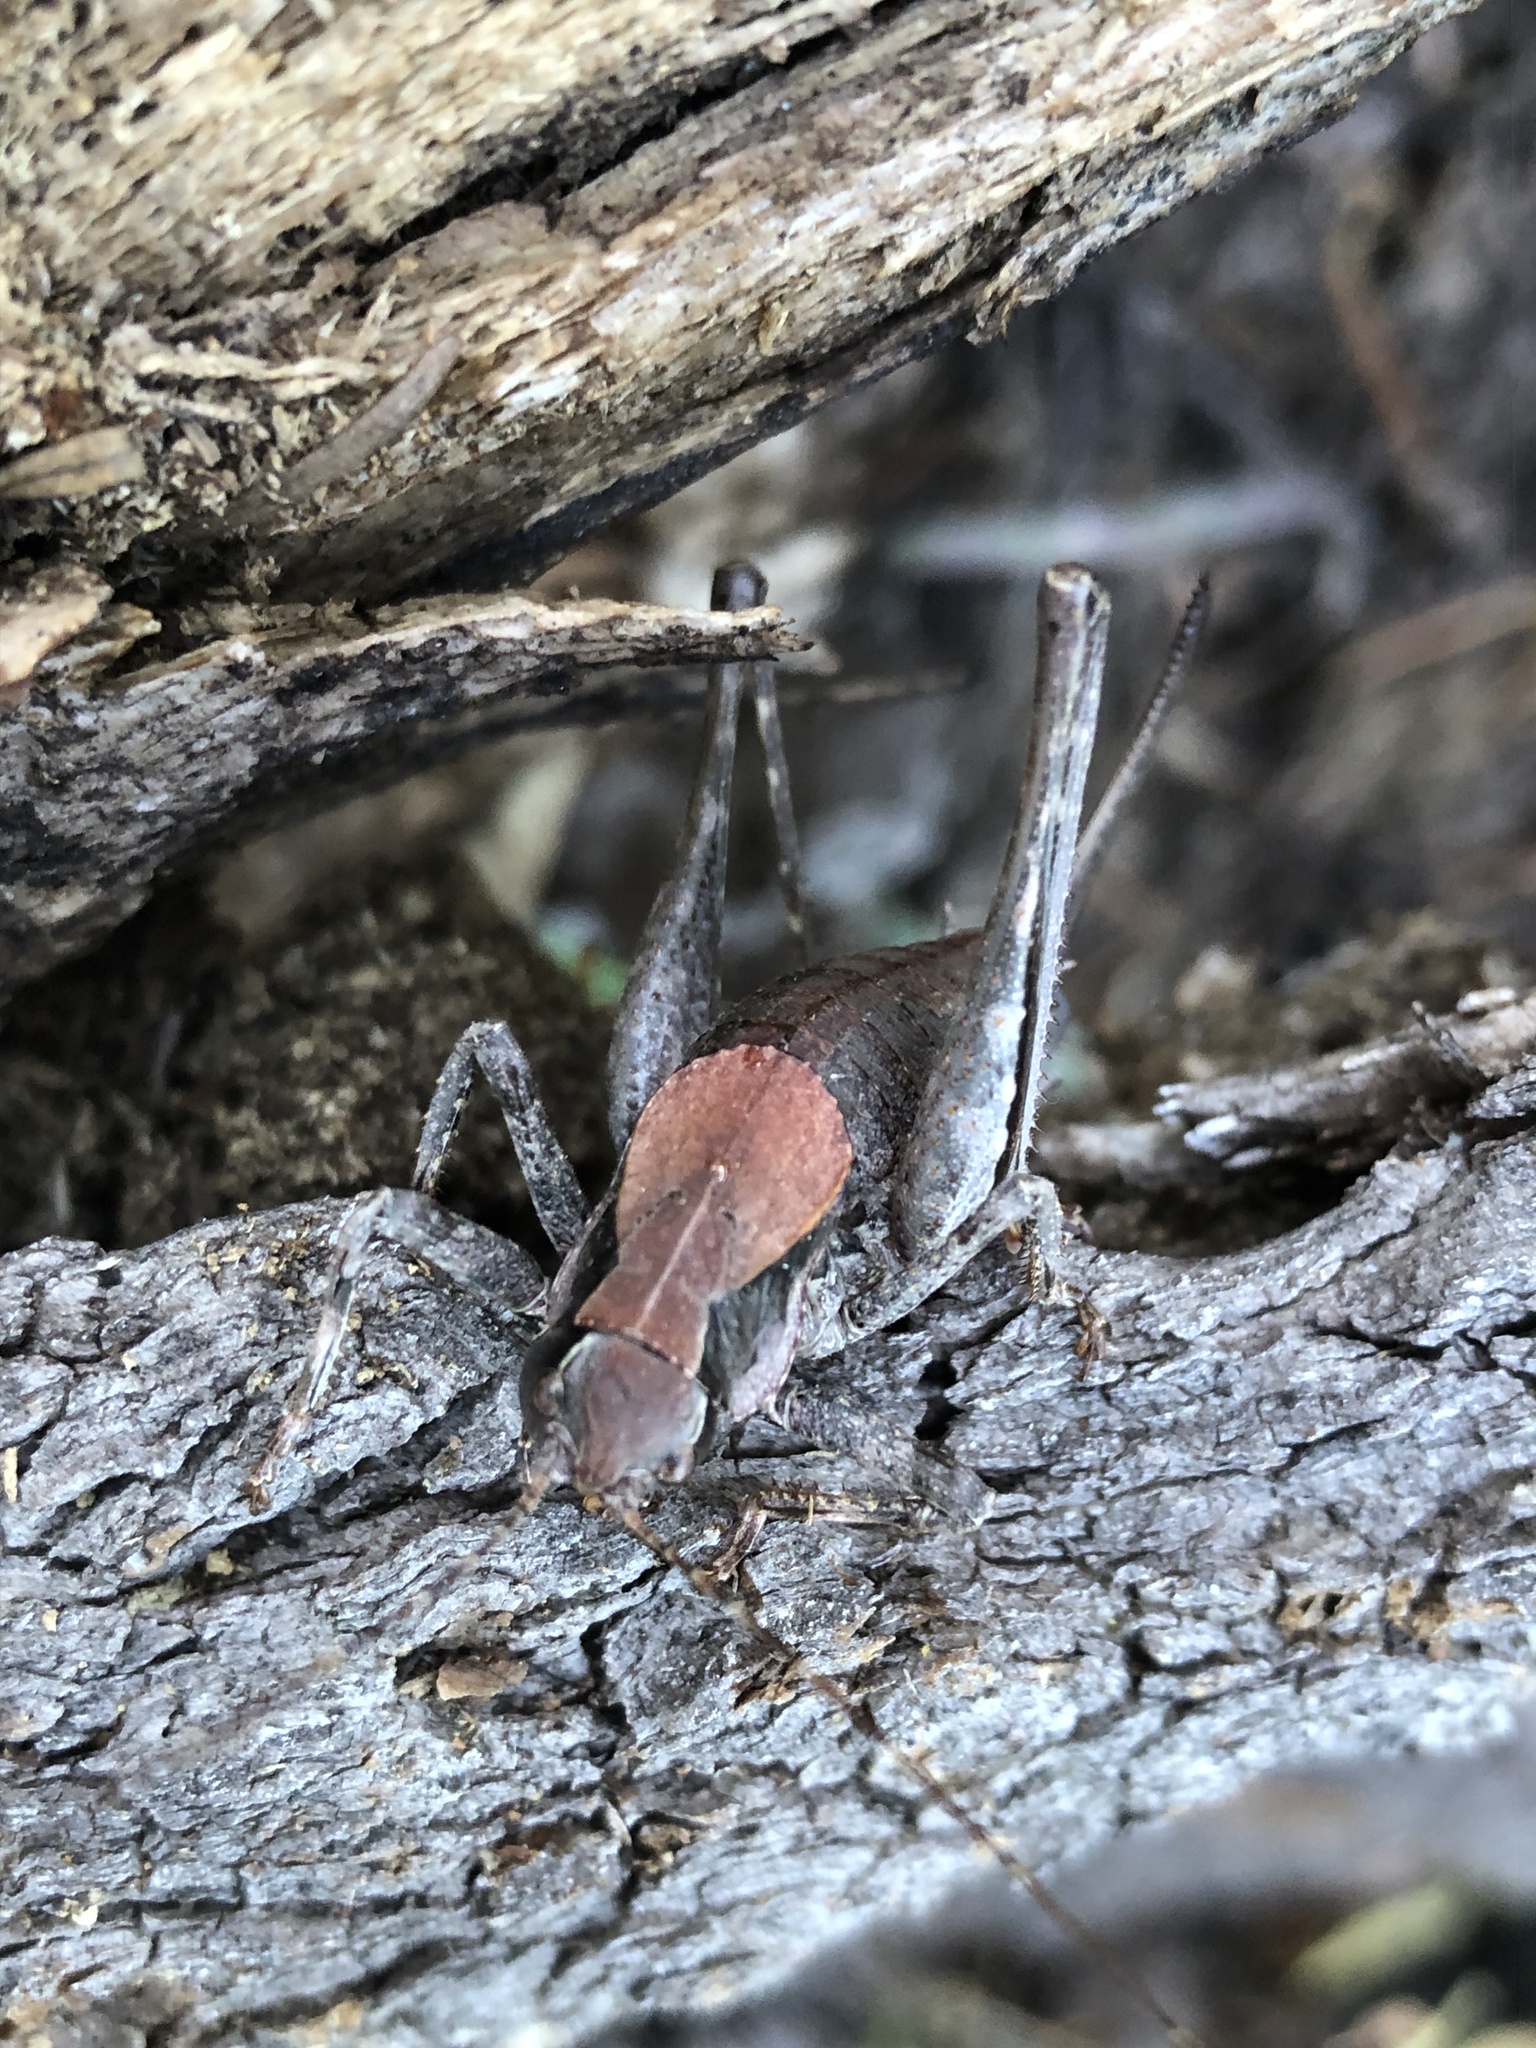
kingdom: Animalia
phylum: Arthropoda
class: Insecta
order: Orthoptera
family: Tettigoniidae
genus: Neduba
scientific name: Neduba cascadia
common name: Cascade shieldback
